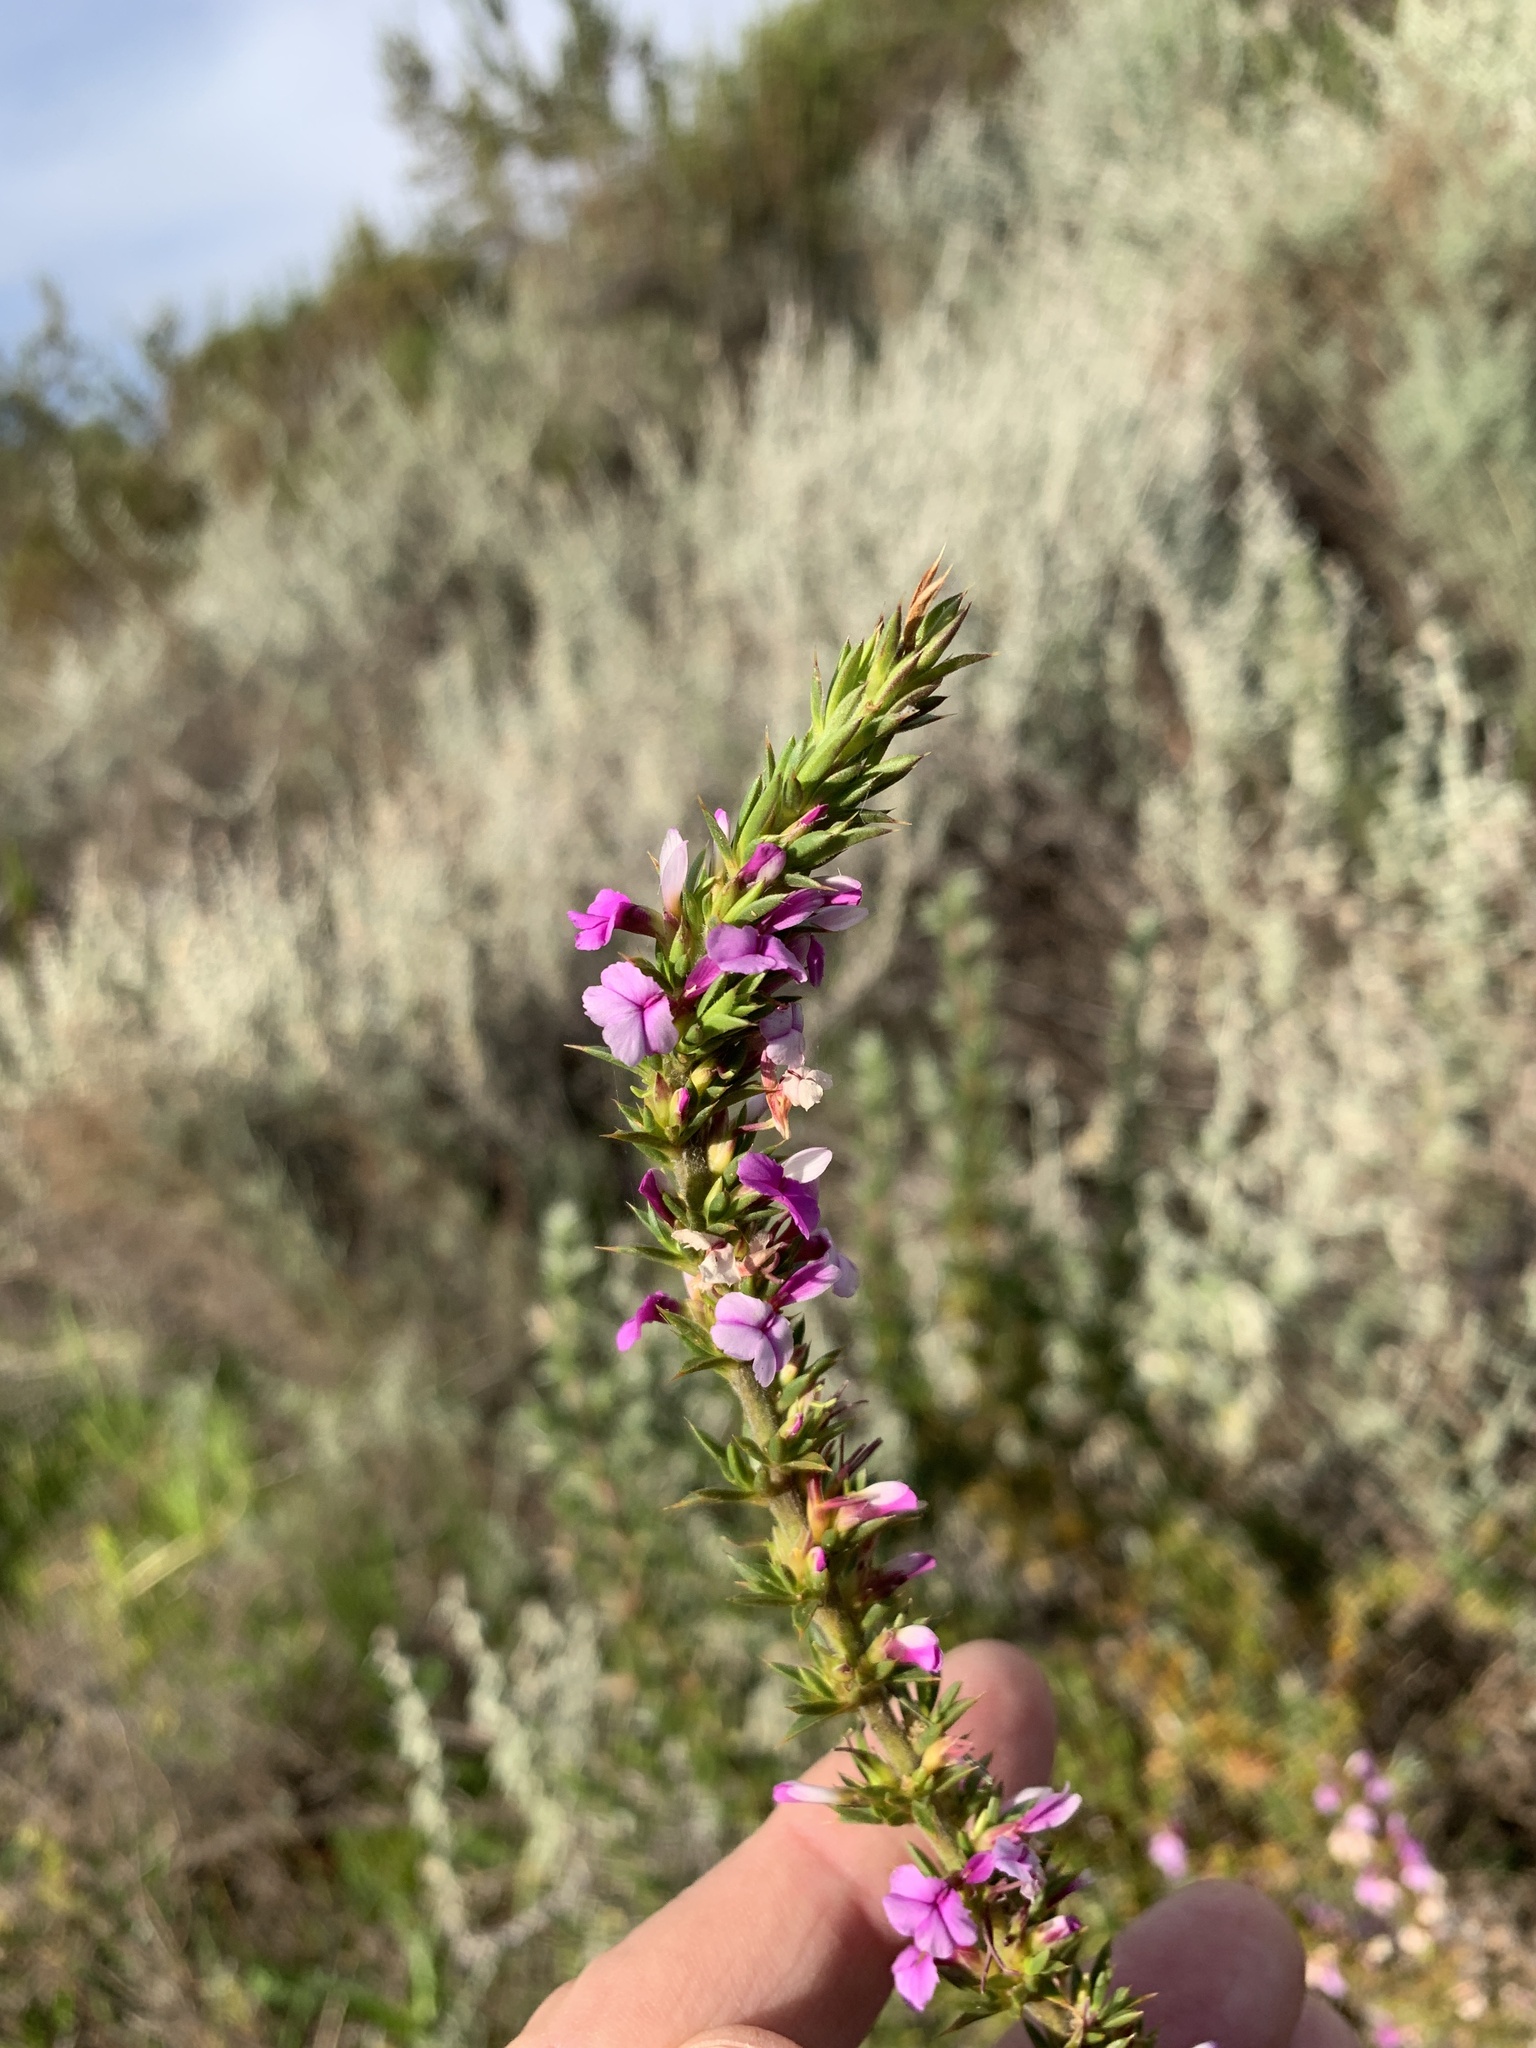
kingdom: Plantae
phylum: Tracheophyta
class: Magnoliopsida
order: Fabales
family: Polygalaceae
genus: Muraltia
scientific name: Muraltia heisteria
